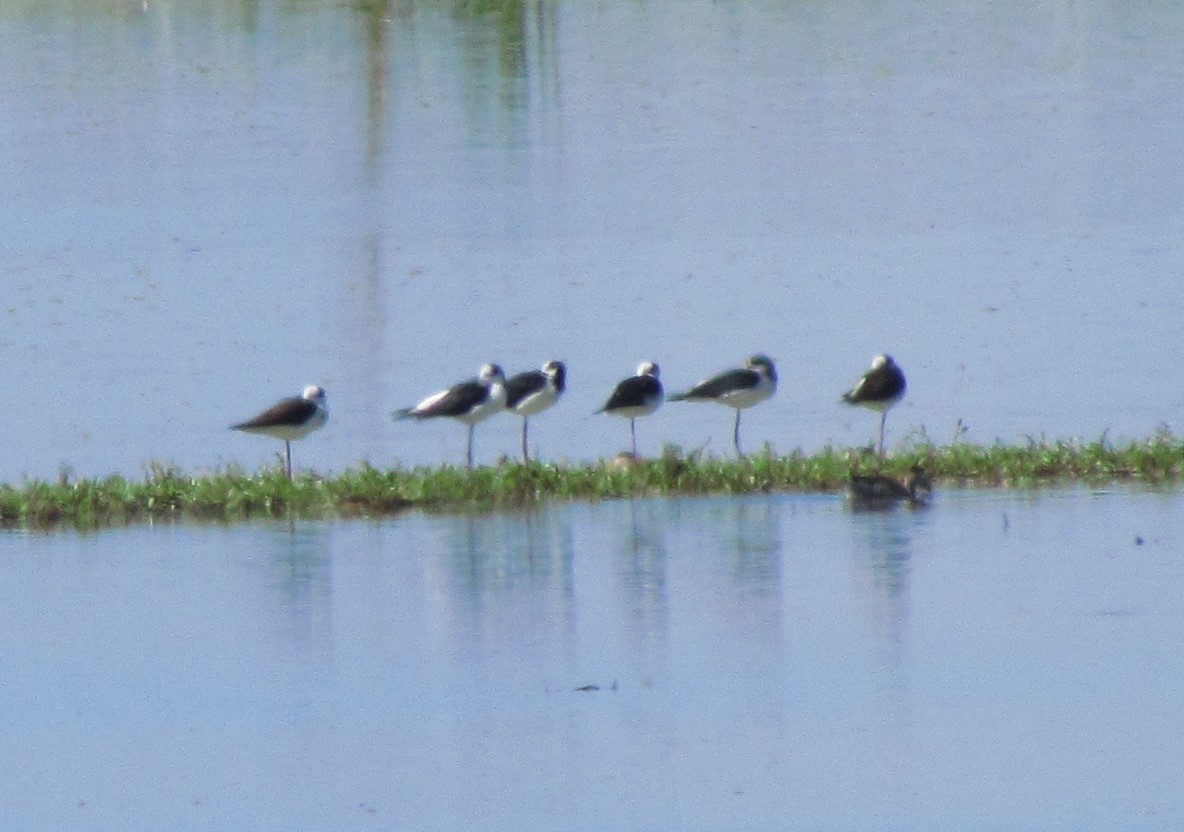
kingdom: Animalia
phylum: Chordata
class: Aves
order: Charadriiformes
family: Recurvirostridae
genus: Himantopus
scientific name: Himantopus mexicanus
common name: Black-necked stilt
